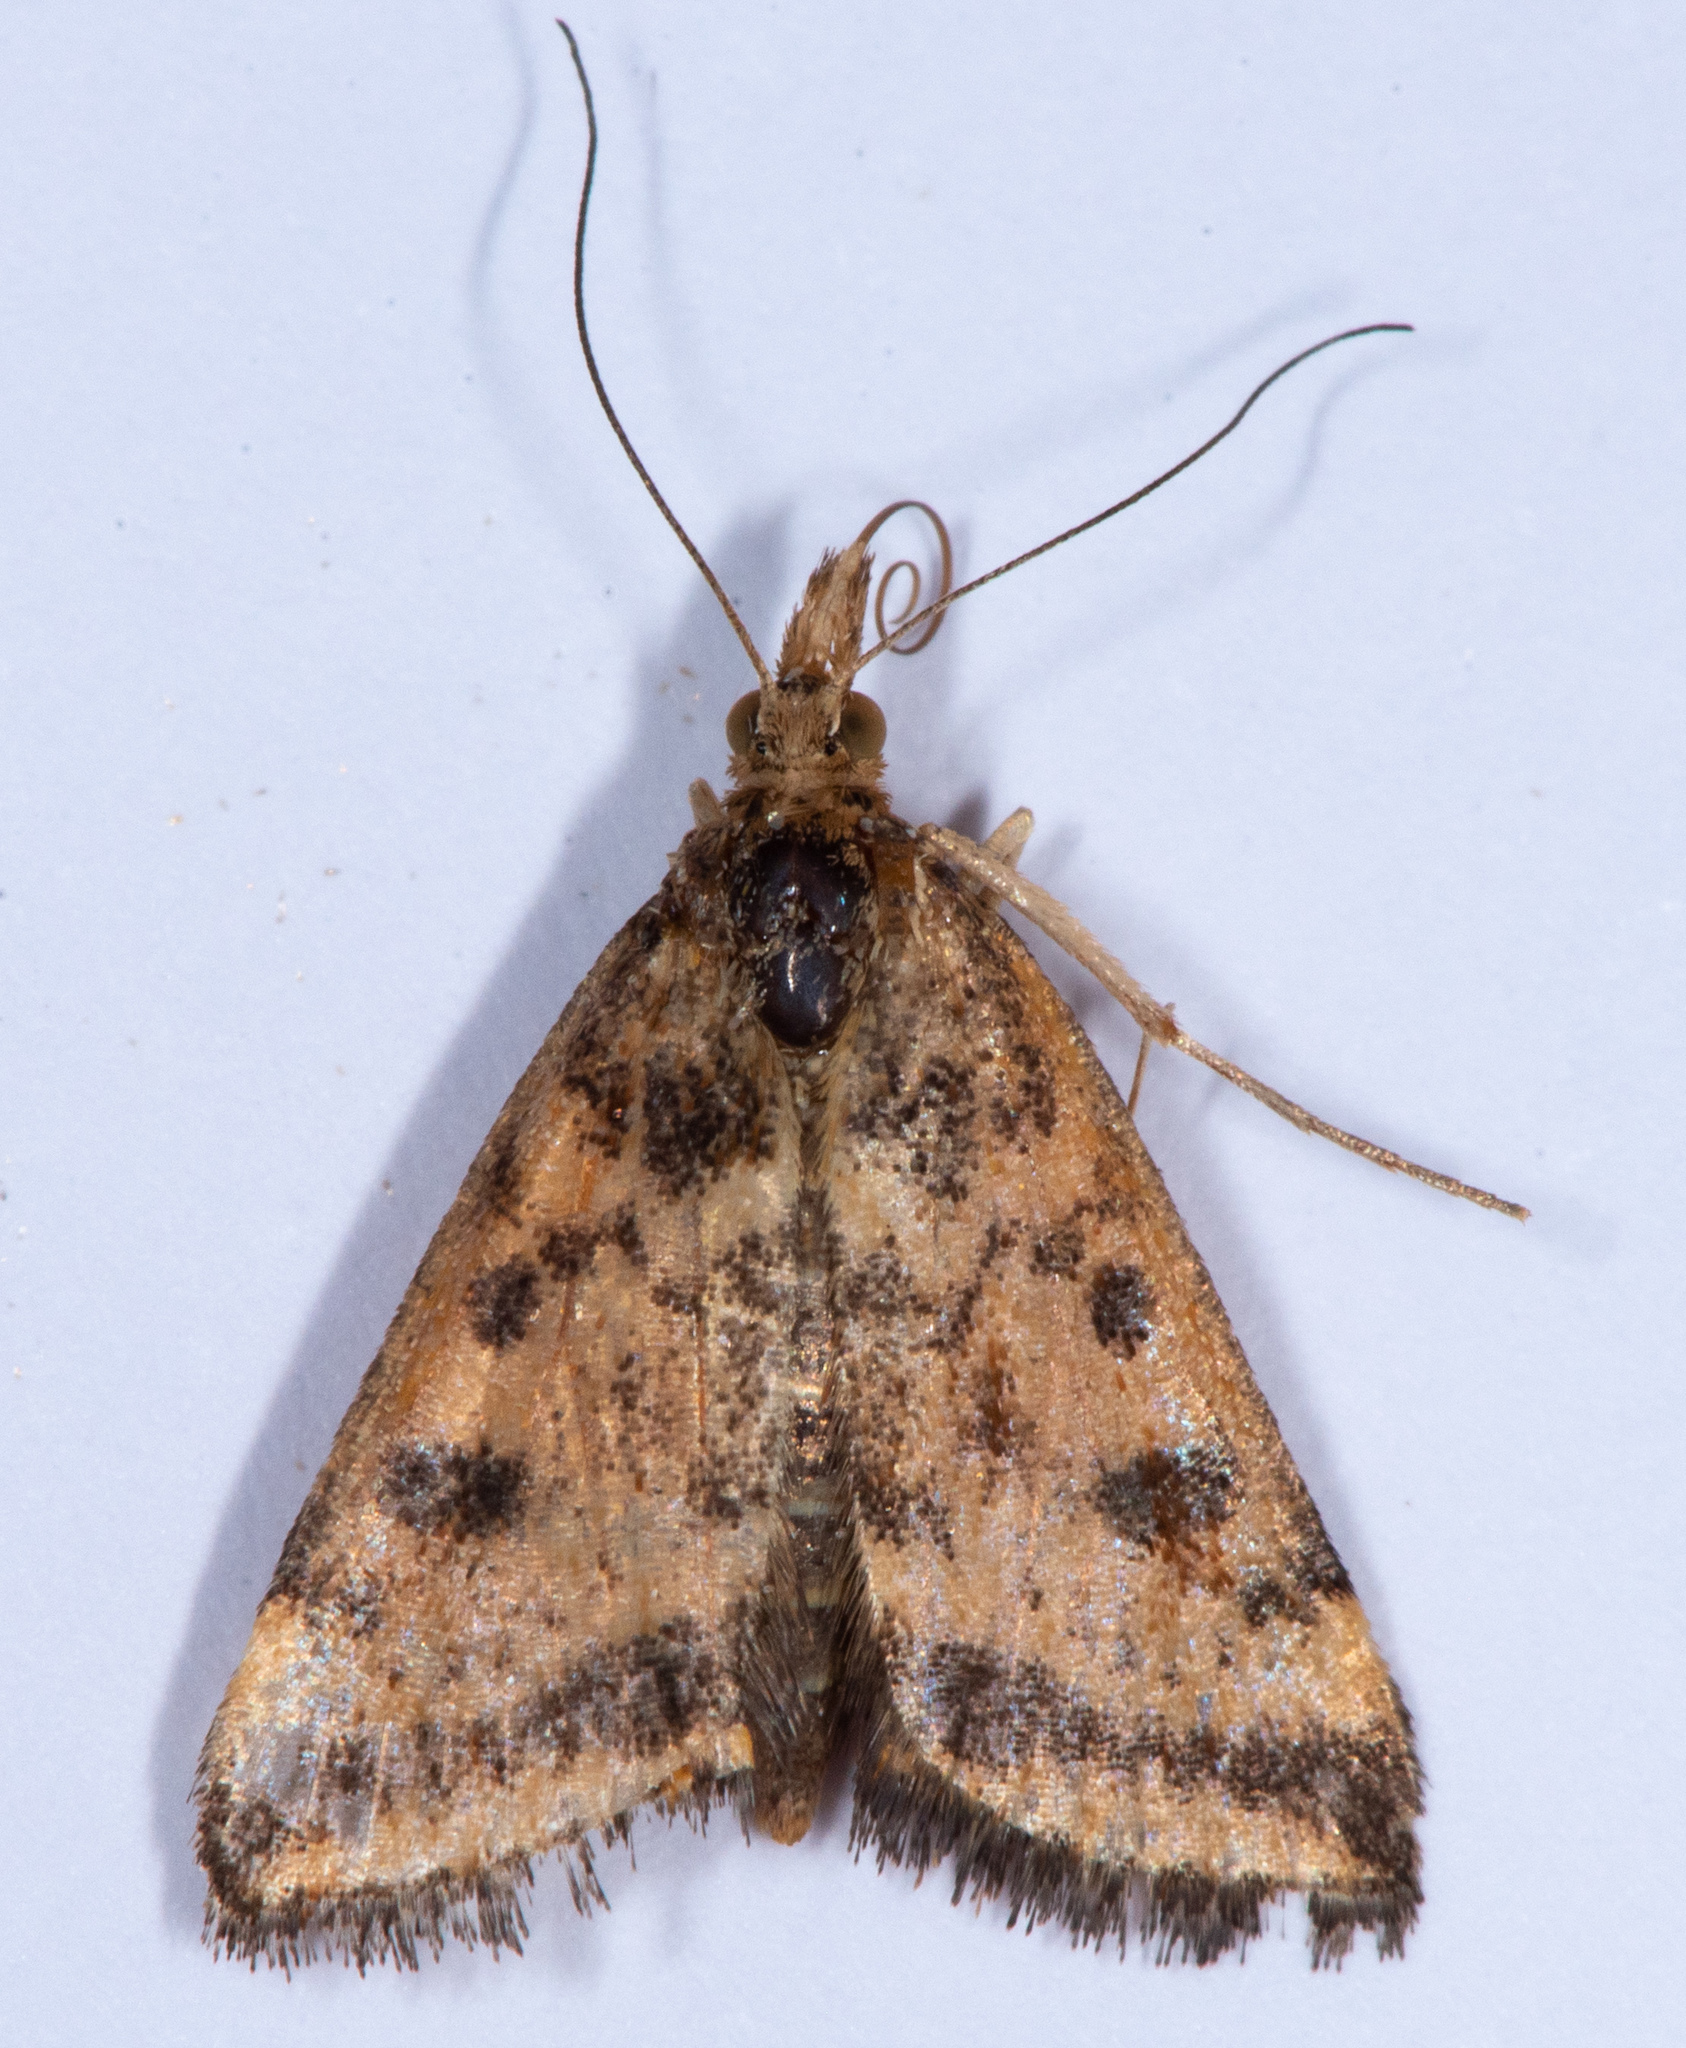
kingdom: Animalia
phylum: Arthropoda
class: Insecta
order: Lepidoptera
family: Crambidae
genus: Pyrausta
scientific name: Pyrausta subsequalis
